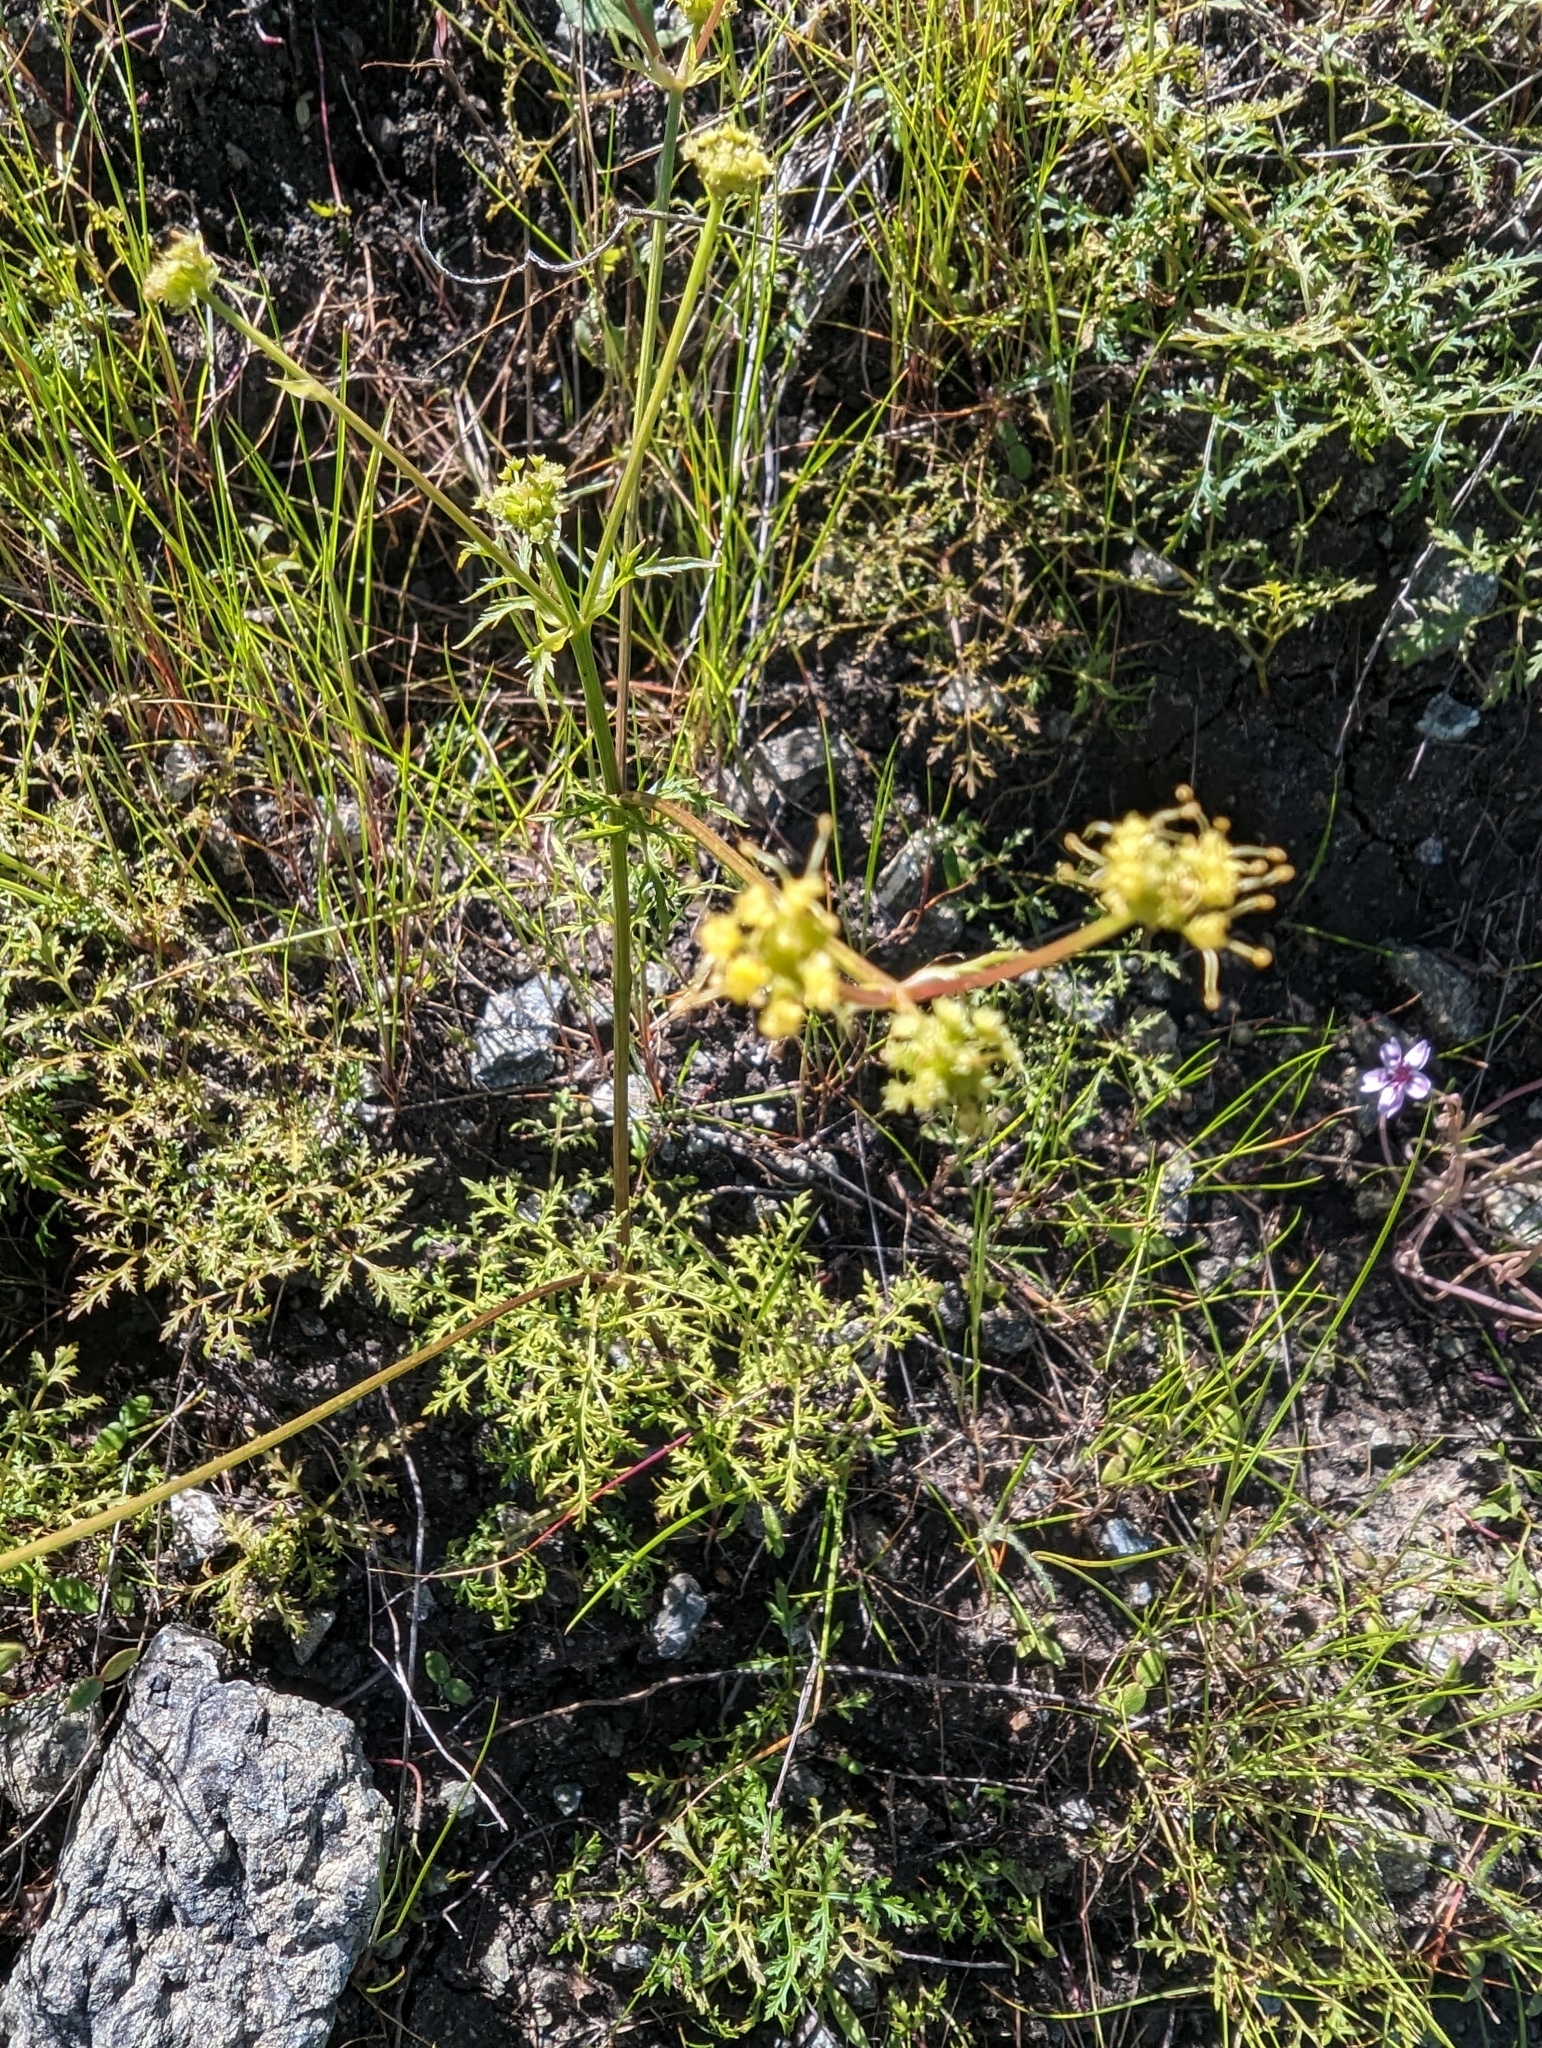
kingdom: Plantae
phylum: Tracheophyta
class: Magnoliopsida
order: Apiales
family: Apiaceae
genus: Sanicula
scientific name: Sanicula tuberosa
